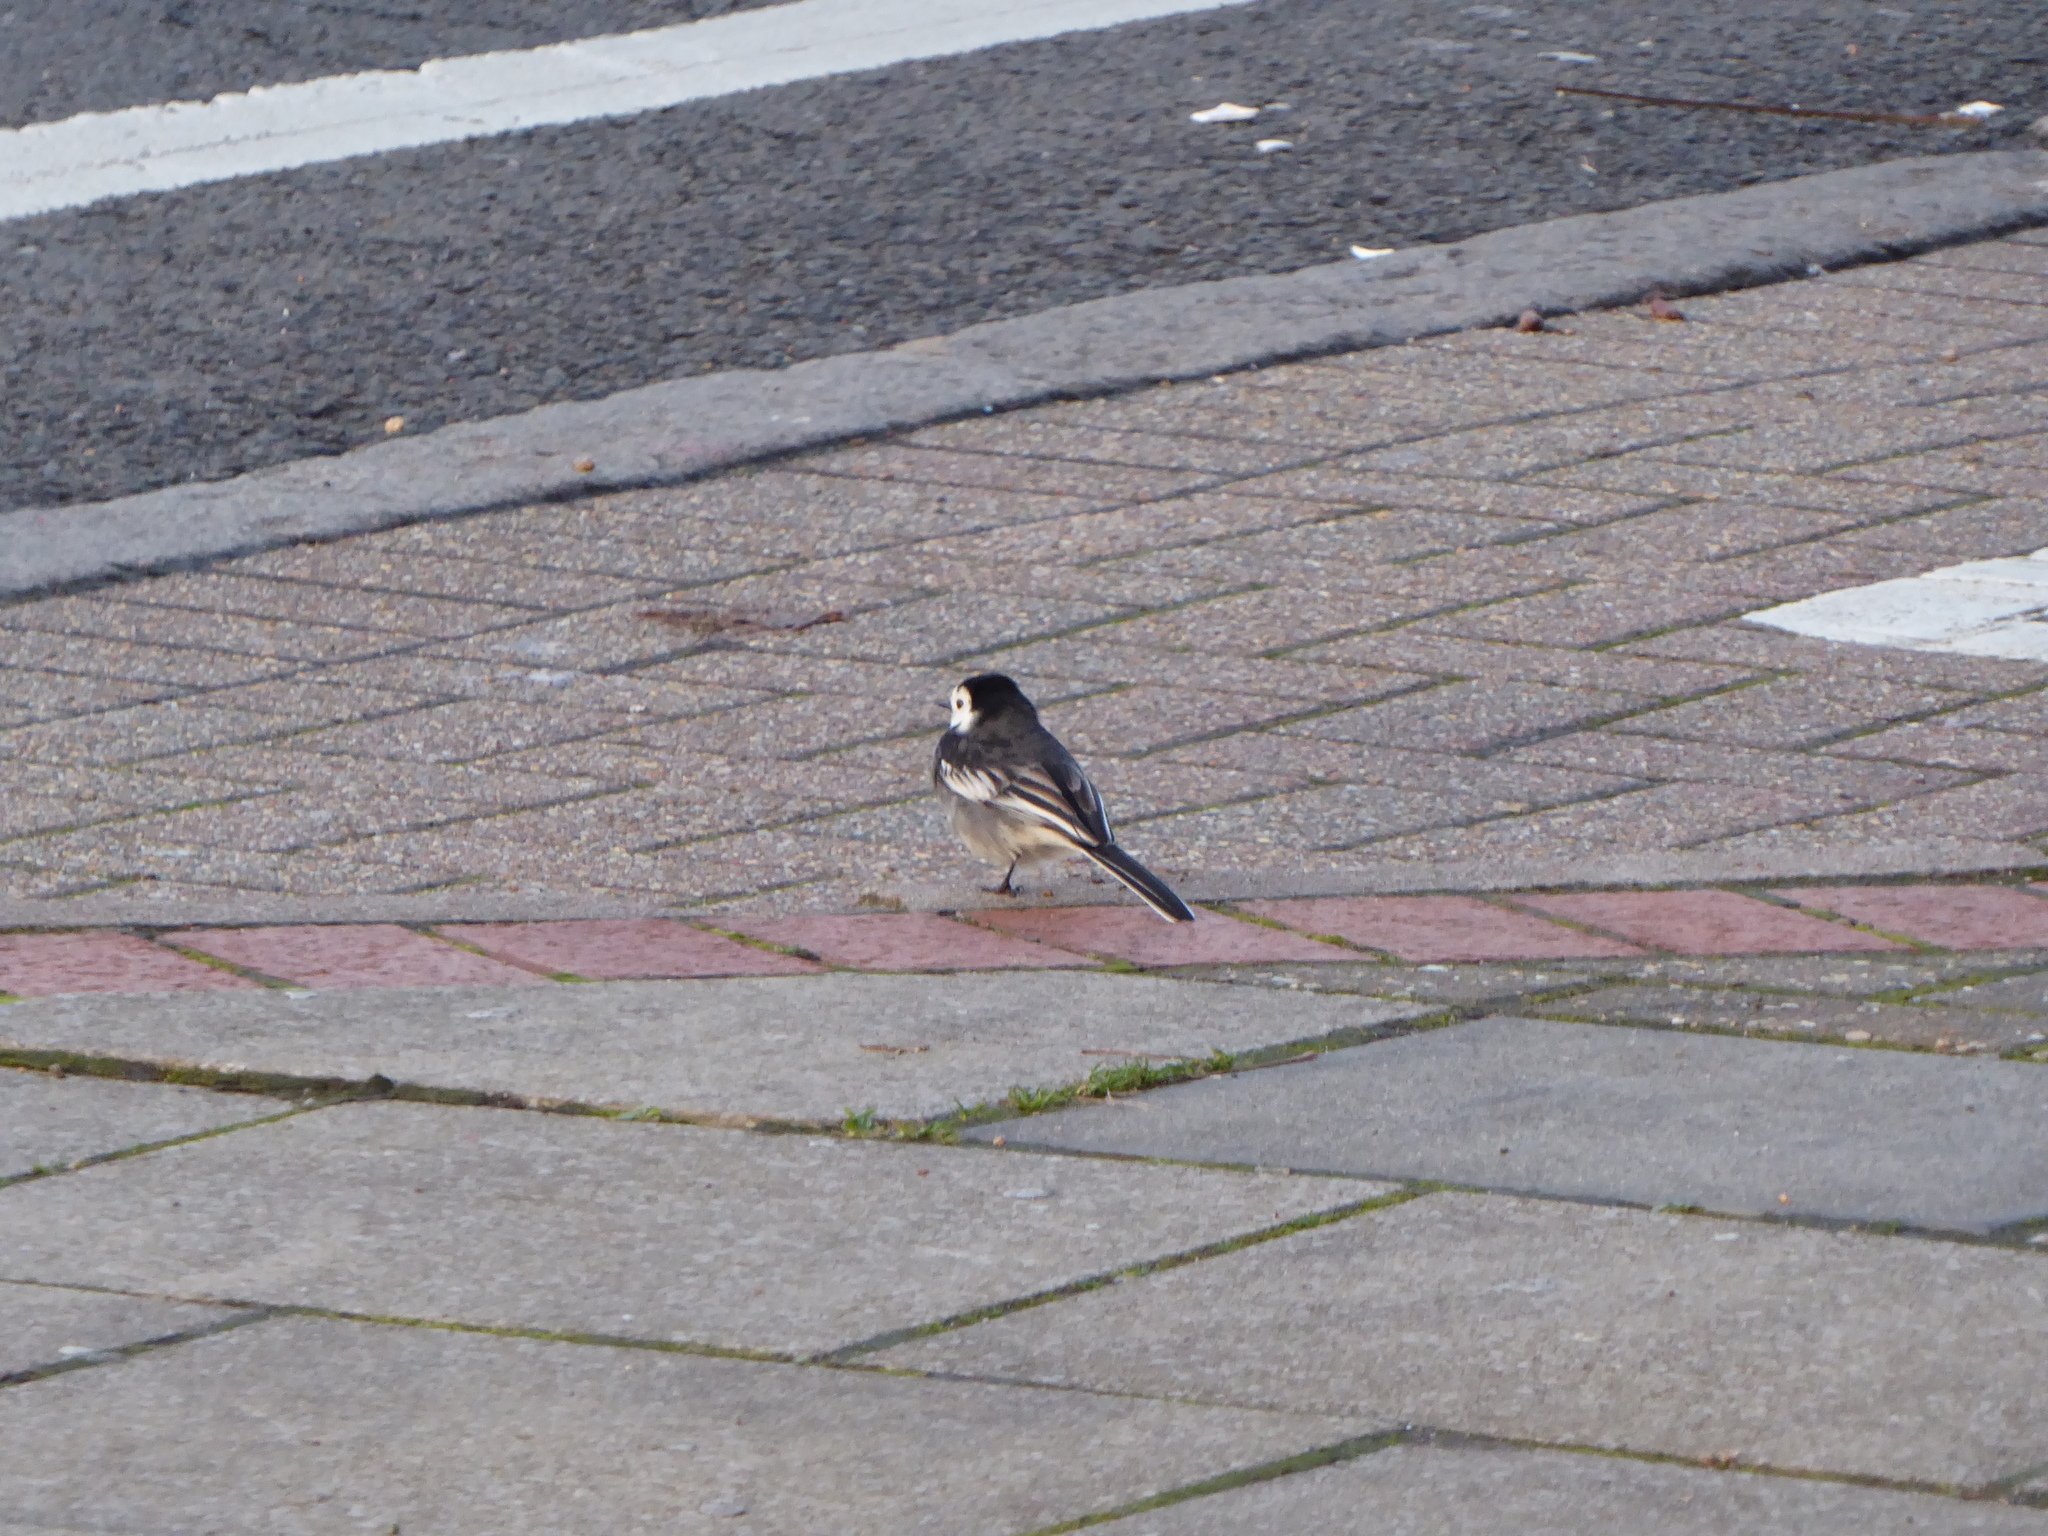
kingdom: Animalia
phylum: Chordata
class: Aves
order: Passeriformes
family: Motacillidae
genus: Motacilla
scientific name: Motacilla alba
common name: White wagtail
